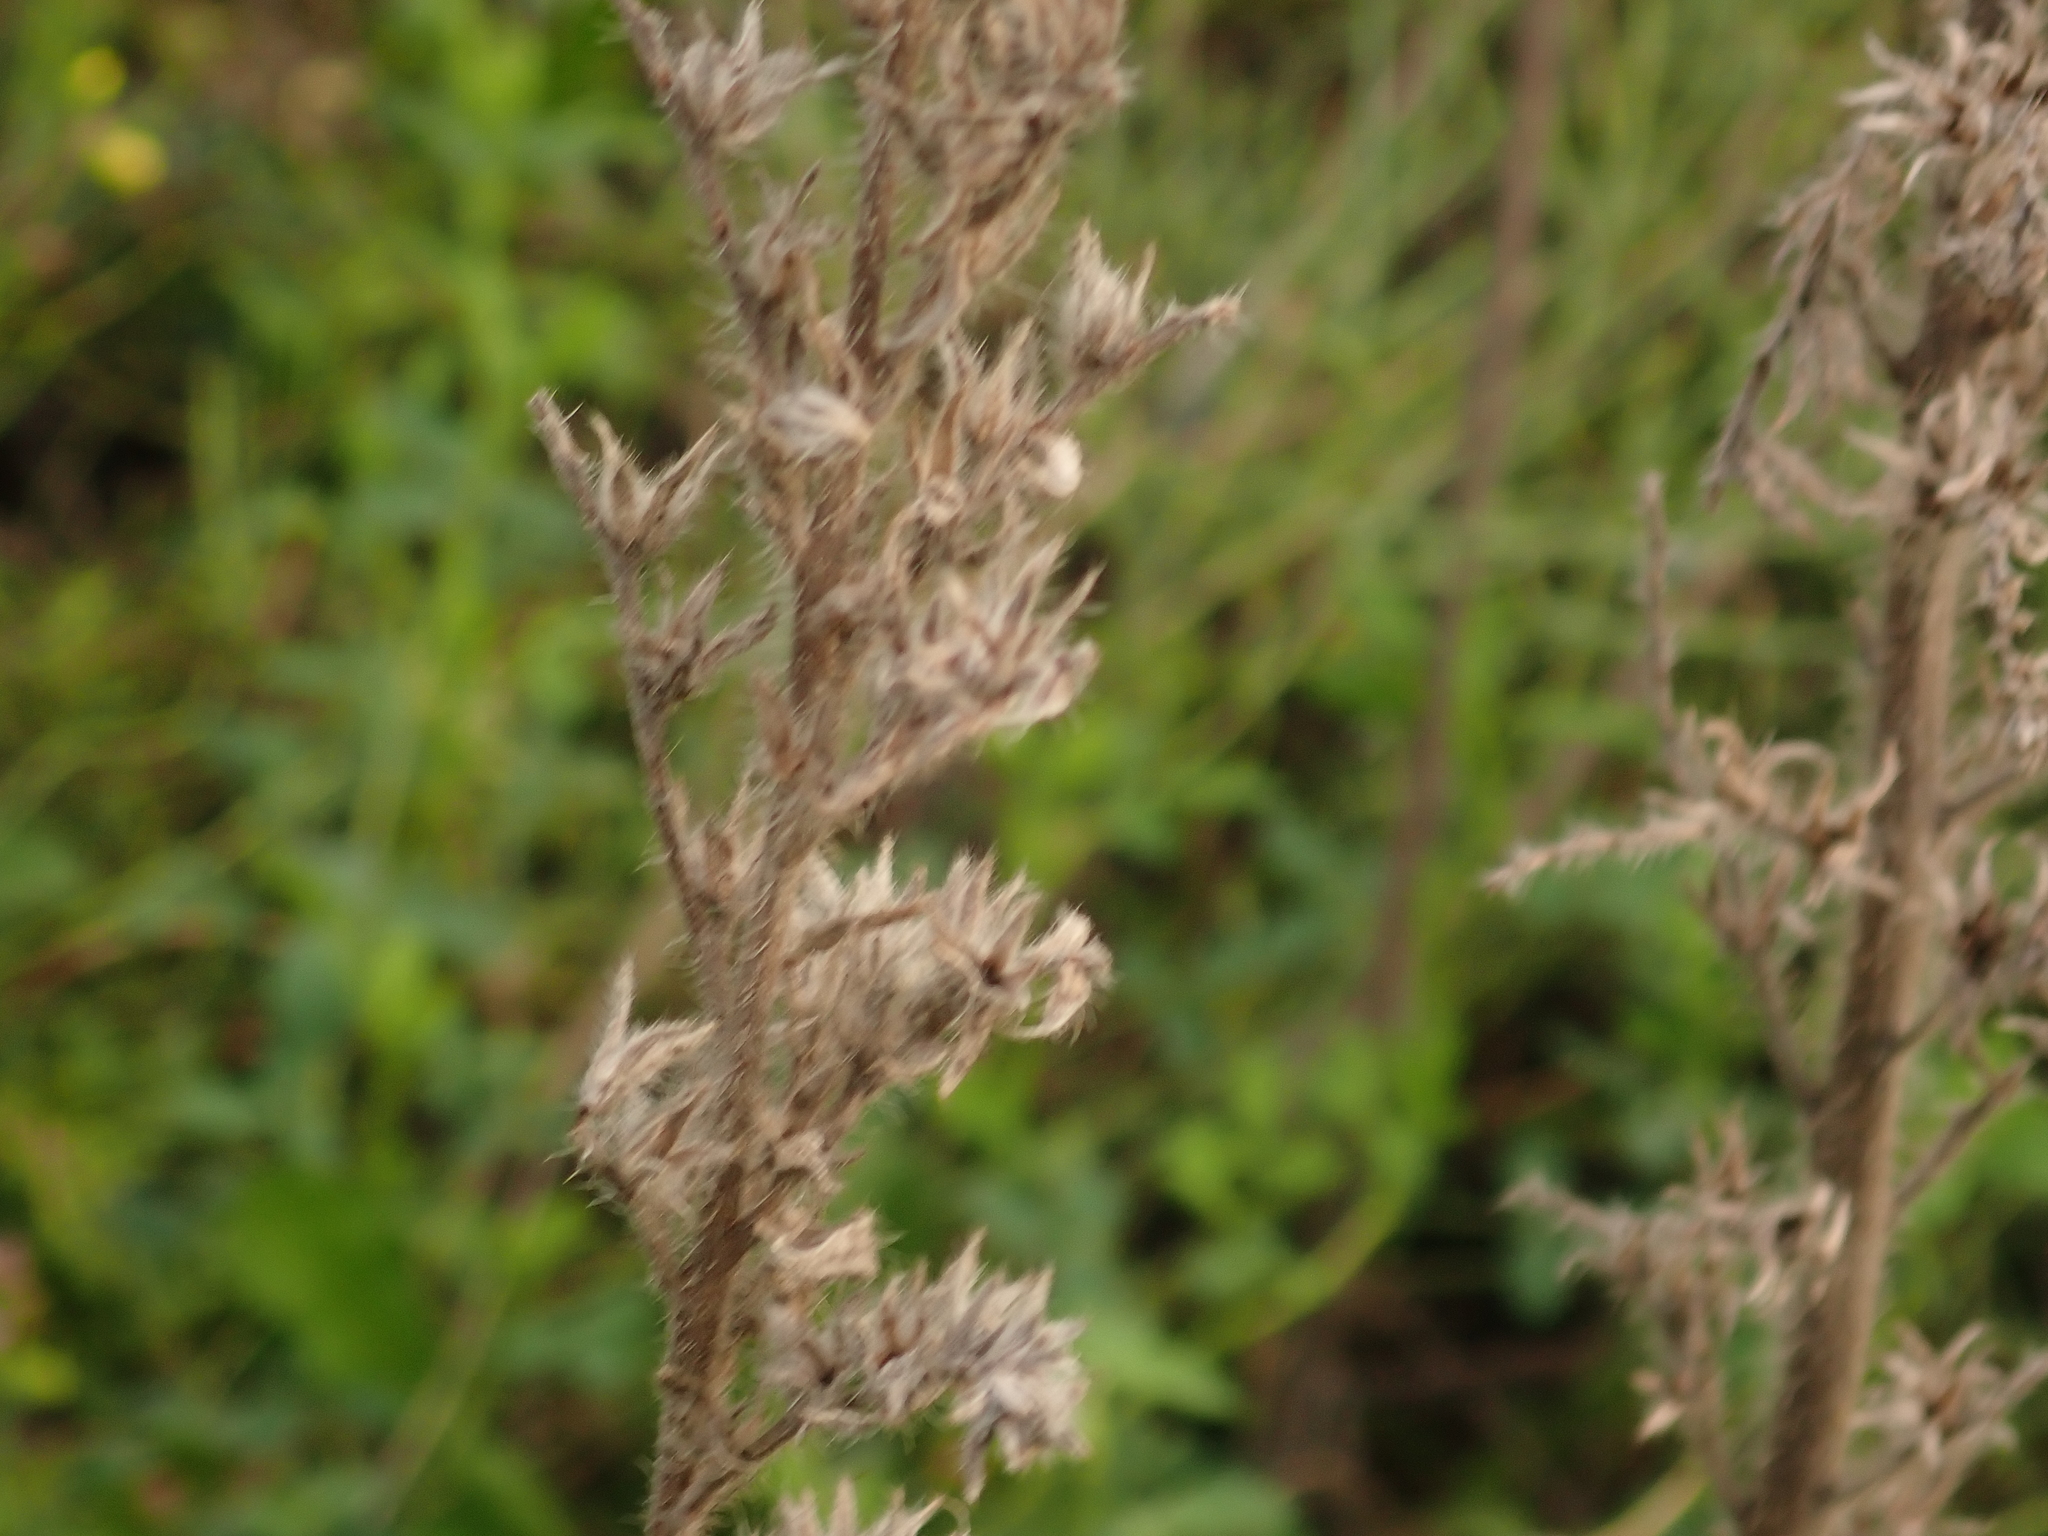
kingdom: Plantae
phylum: Tracheophyta
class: Magnoliopsida
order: Boraginales
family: Boraginaceae
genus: Echium
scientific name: Echium vulgare
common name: Common viper's bugloss
